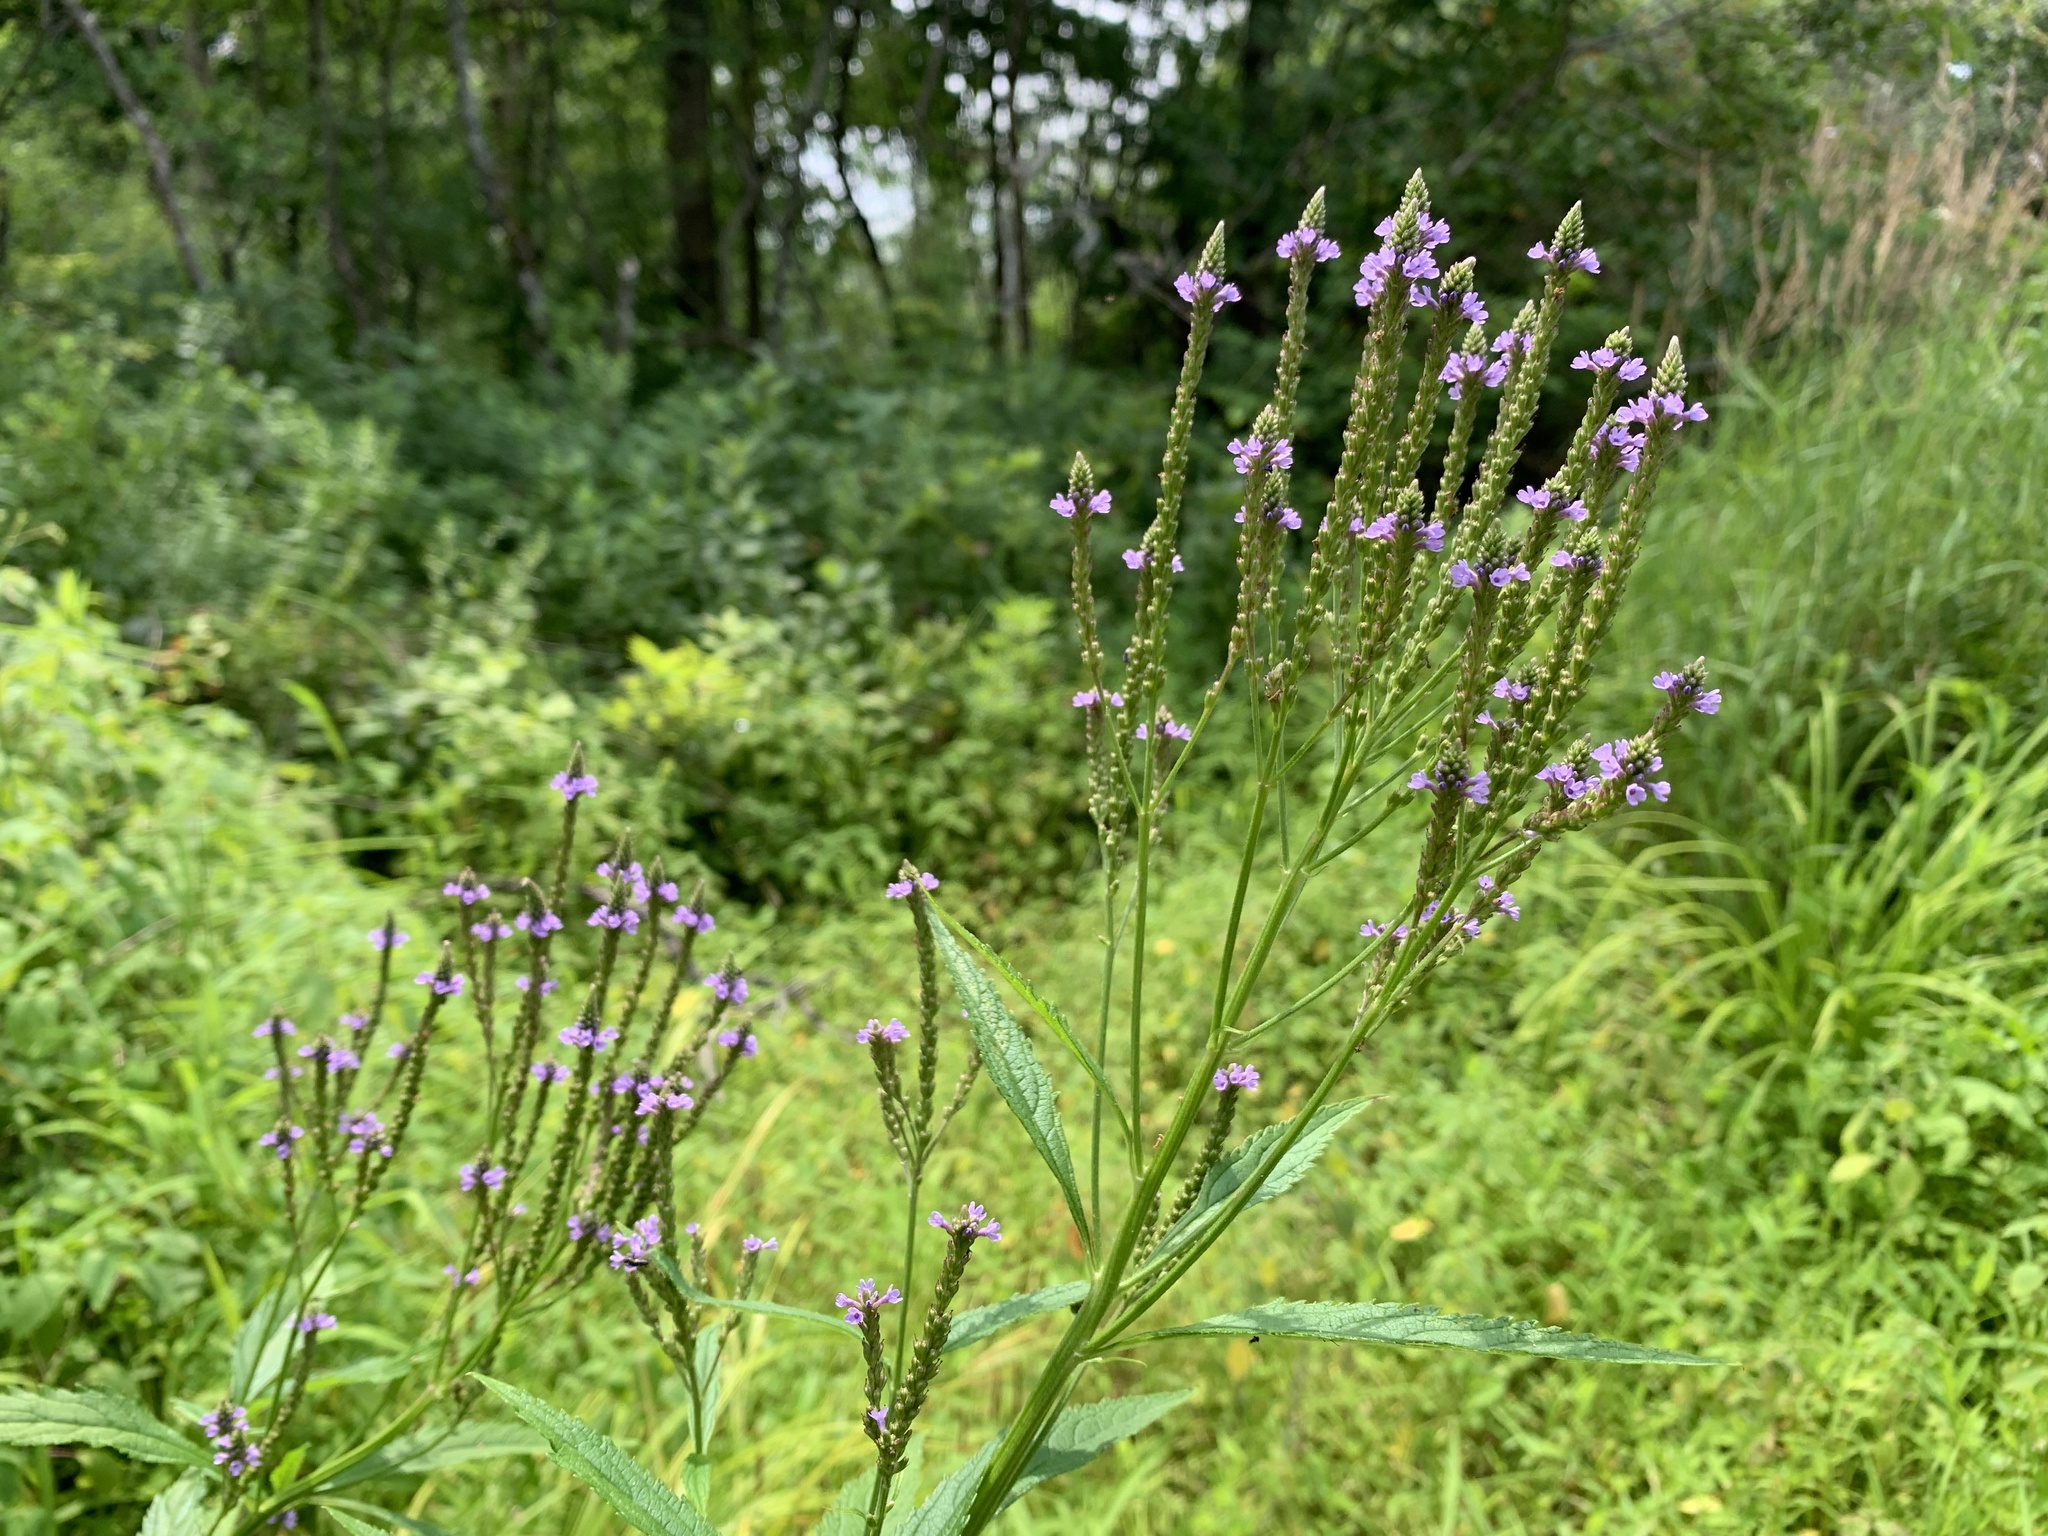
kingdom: Plantae
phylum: Tracheophyta
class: Magnoliopsida
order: Lamiales
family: Verbenaceae
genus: Verbena
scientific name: Verbena hastata
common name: American blue vervain
